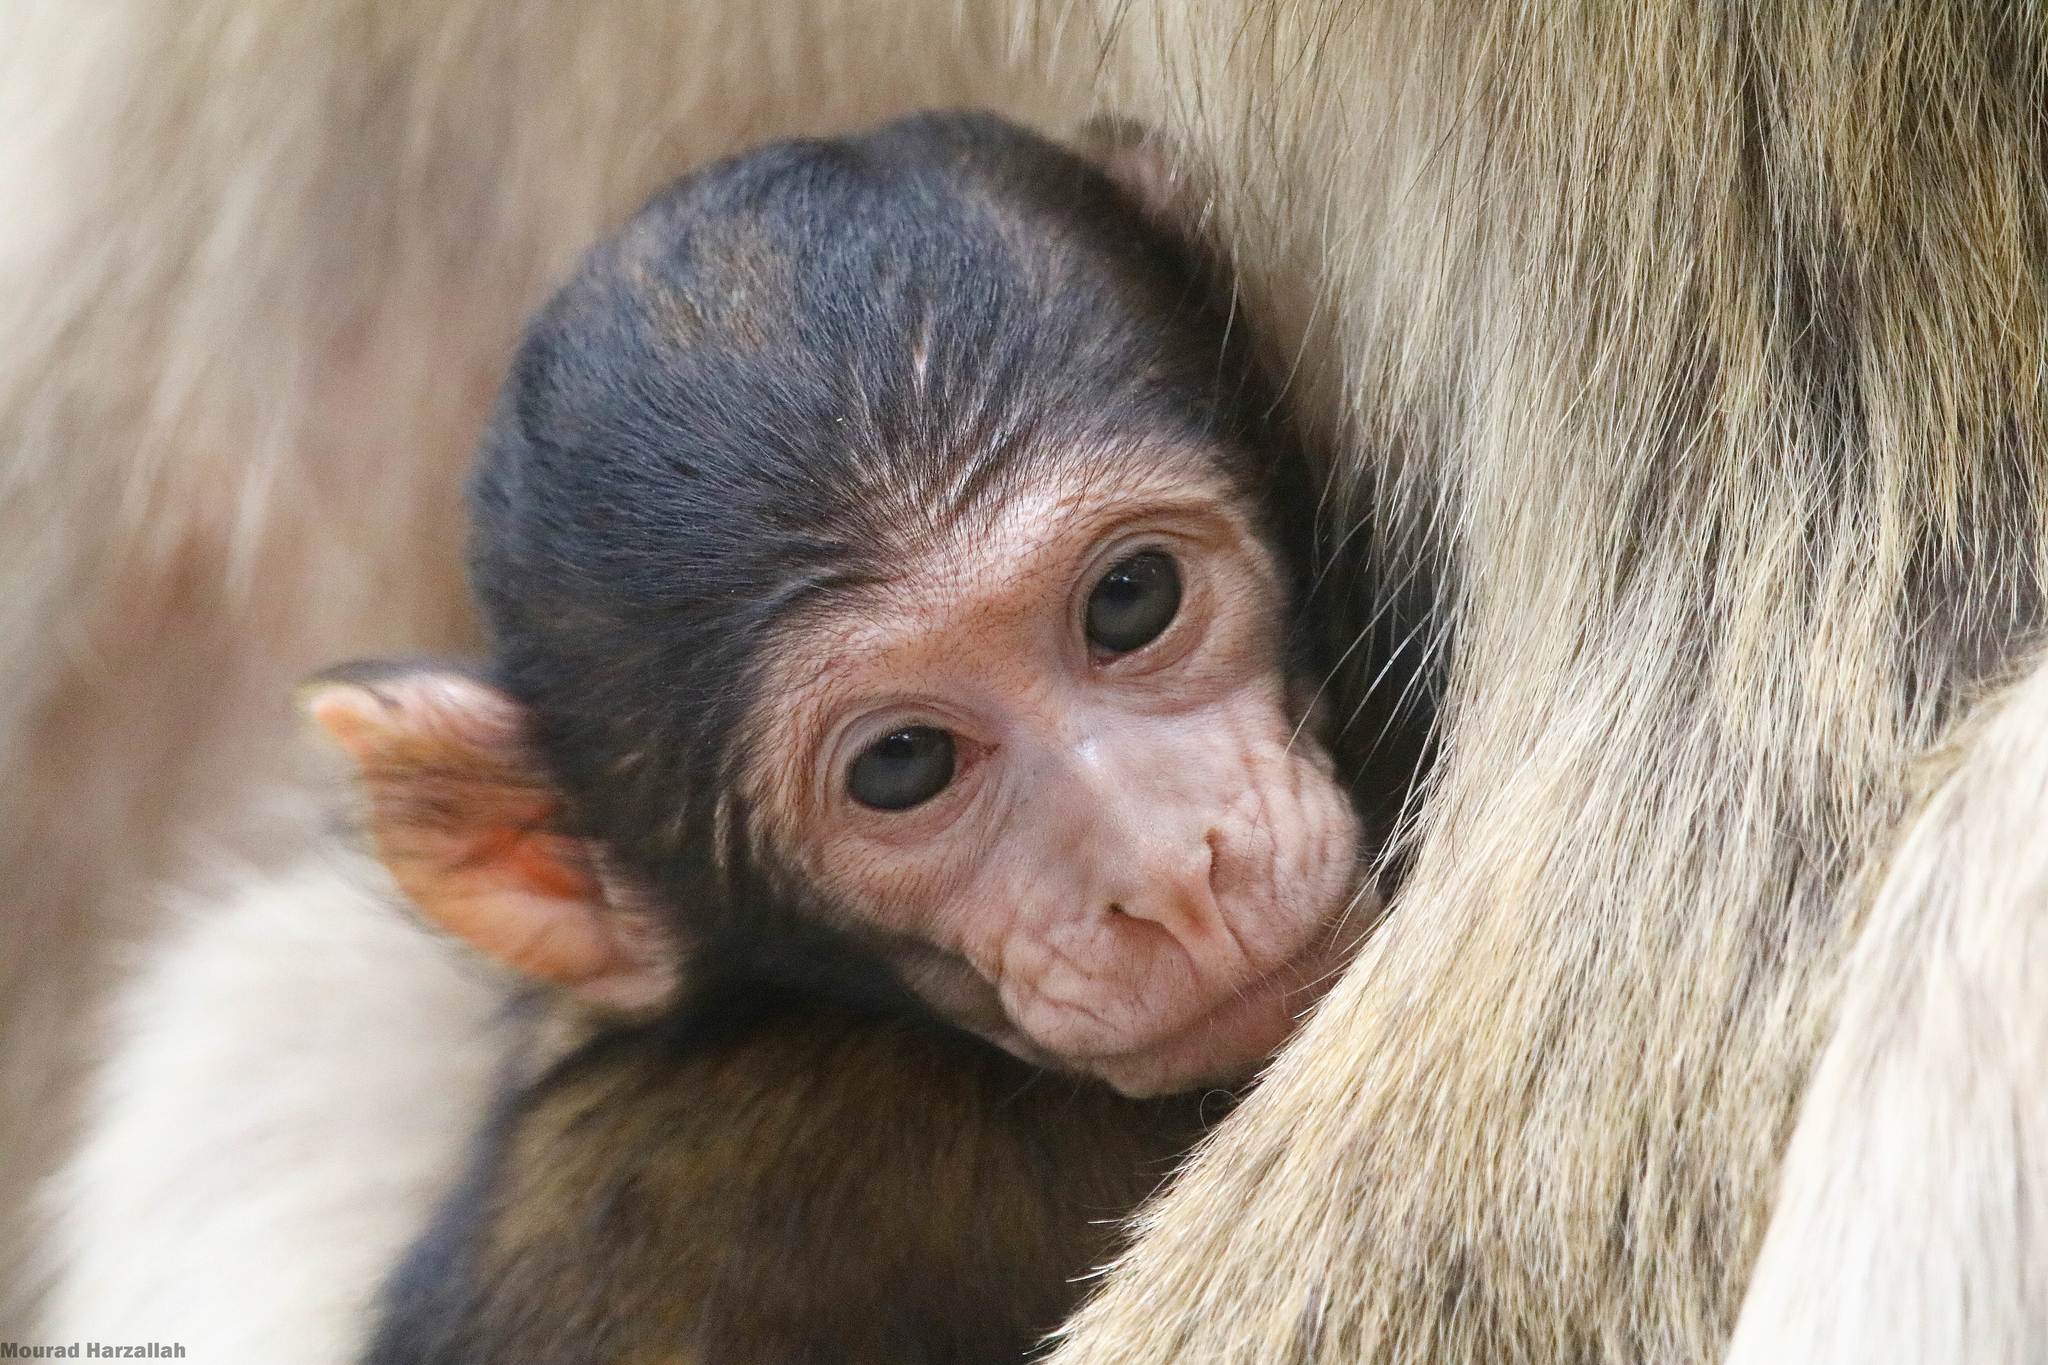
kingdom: Animalia
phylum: Chordata
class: Mammalia
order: Primates
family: Cercopithecidae
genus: Macaca
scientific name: Macaca sylvanus
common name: Barbary macaque
